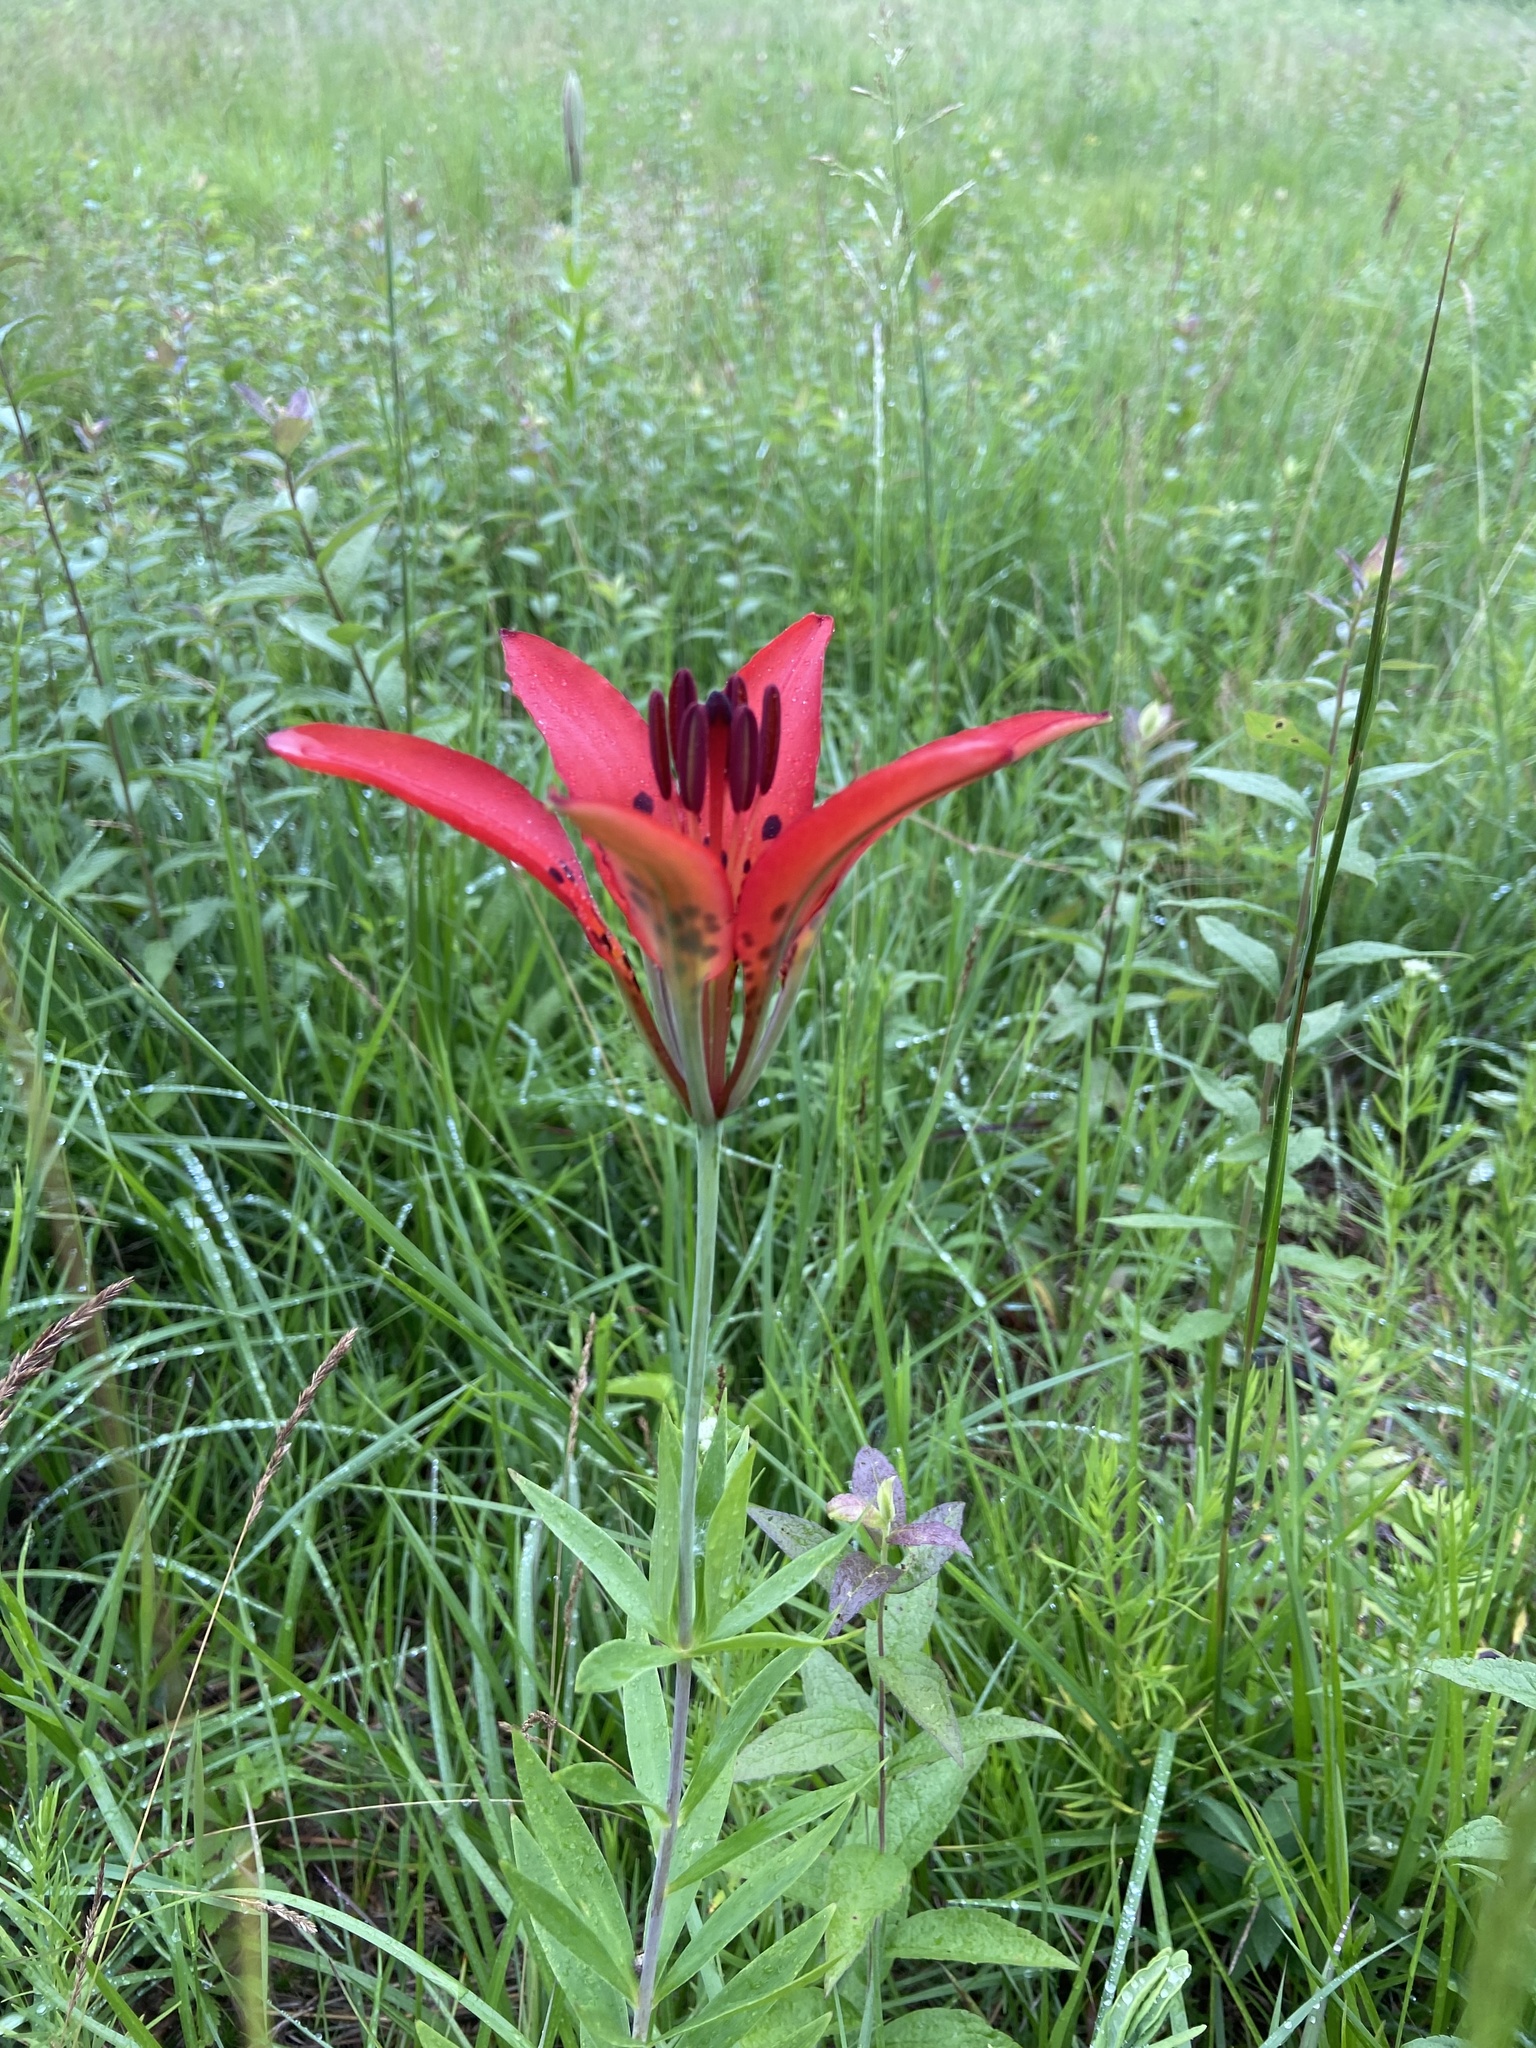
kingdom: Plantae
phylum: Tracheophyta
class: Liliopsida
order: Liliales
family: Liliaceae
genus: Lilium
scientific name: Lilium philadelphicum
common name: Red lily
